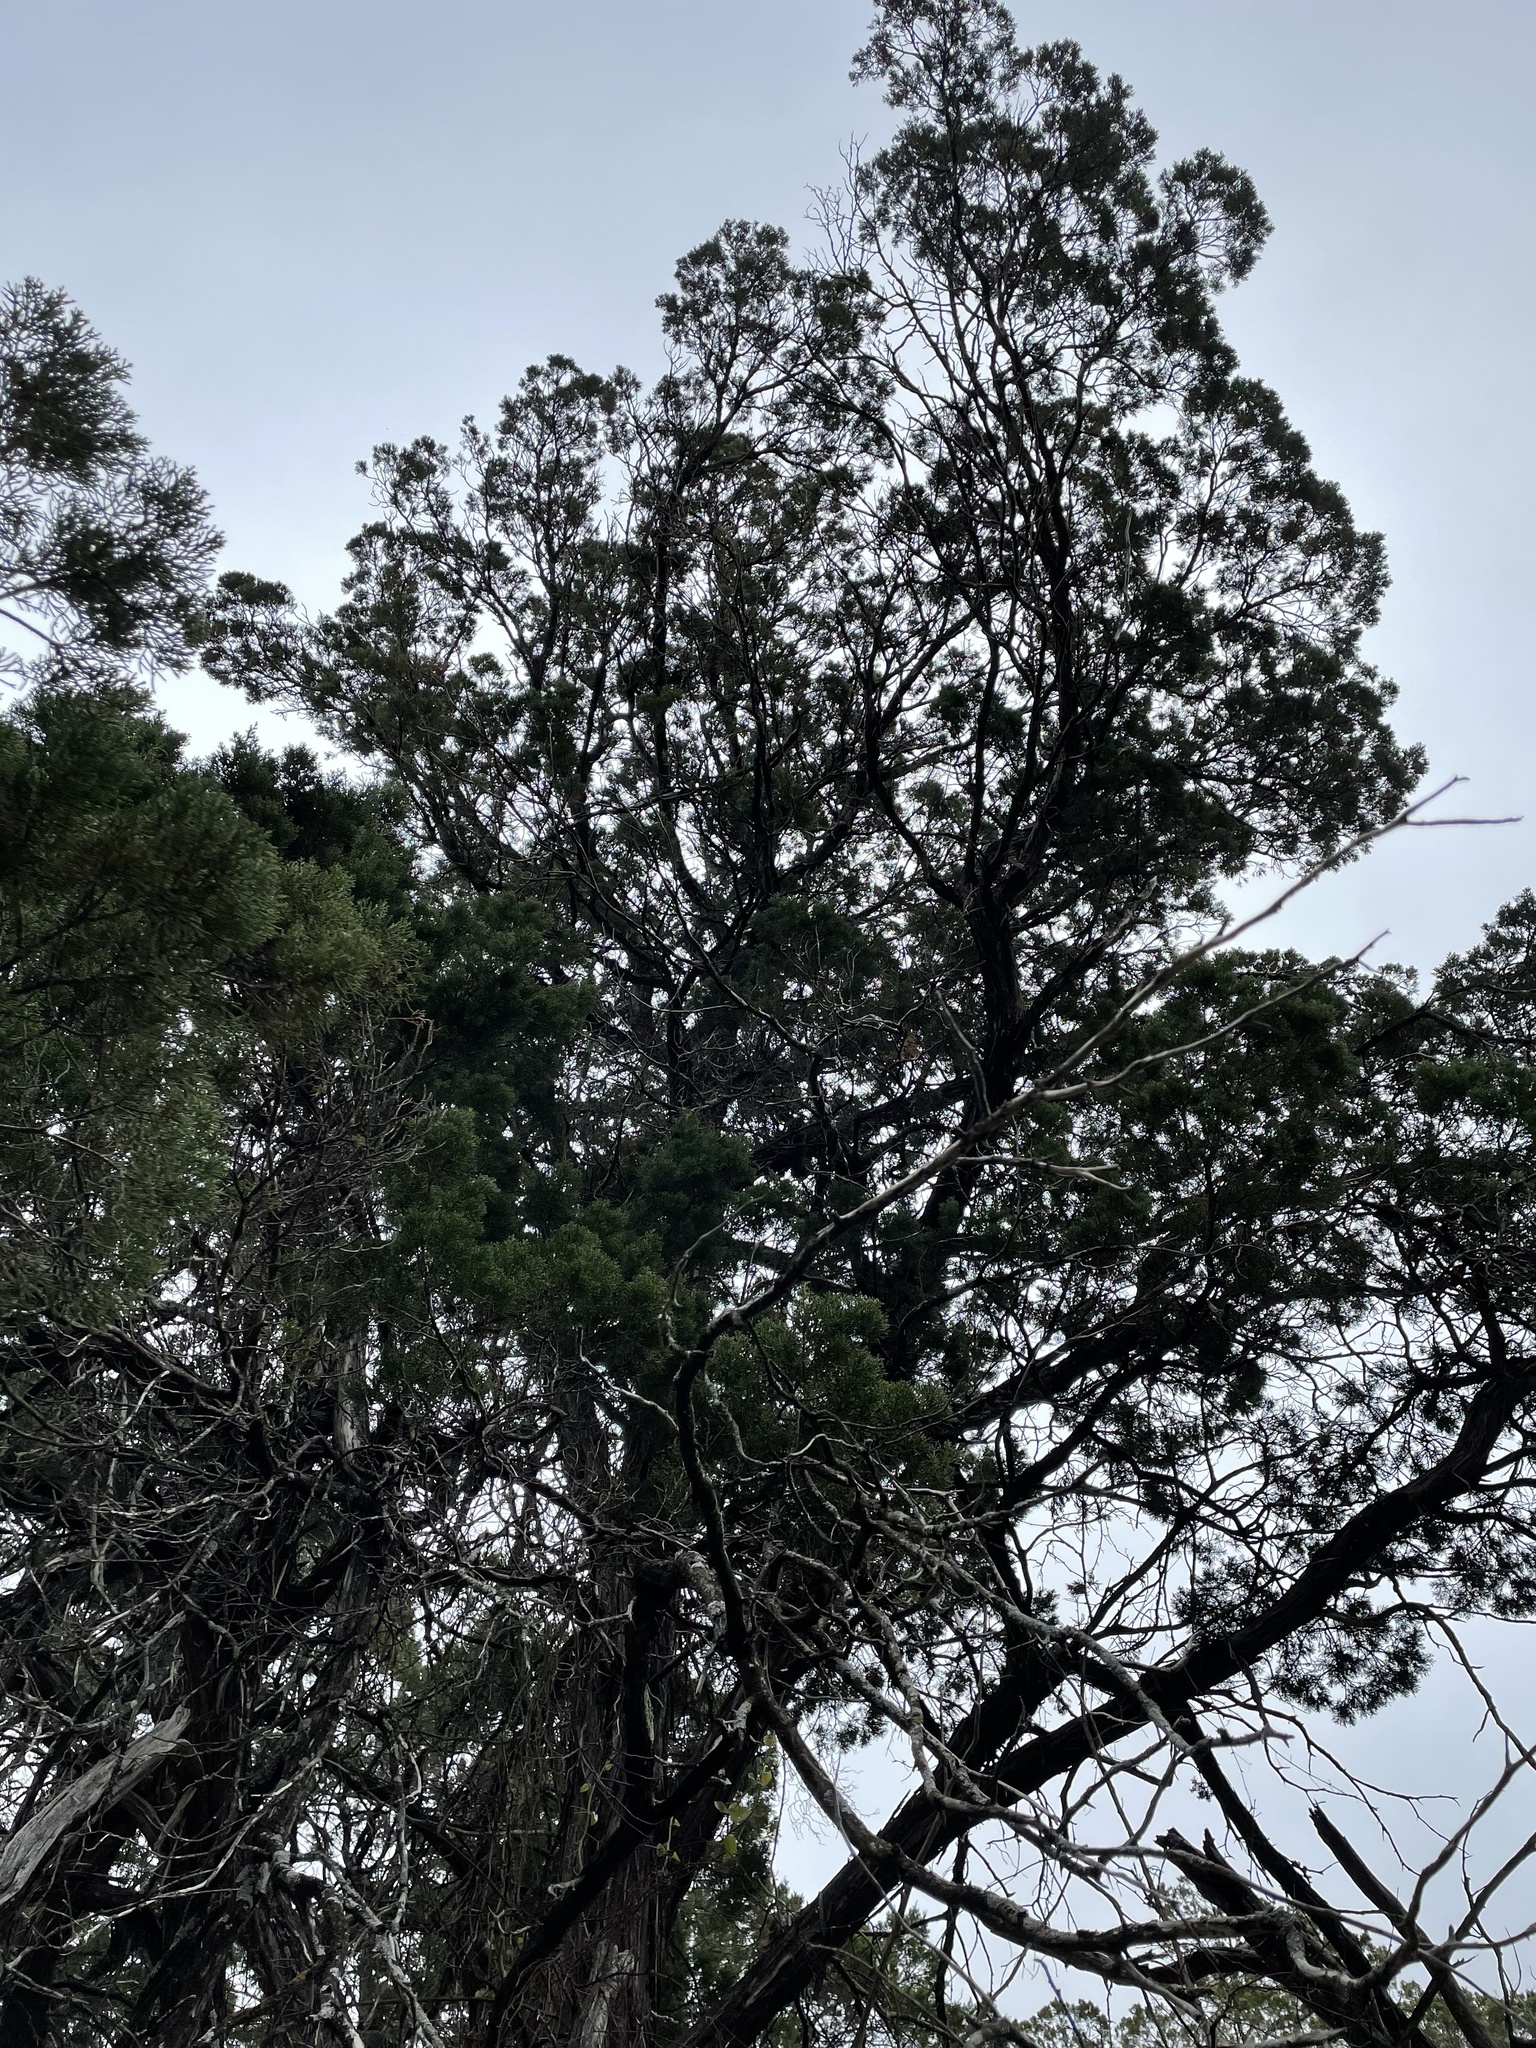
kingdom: Plantae
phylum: Tracheophyta
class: Pinopsida
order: Pinales
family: Cupressaceae
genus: Juniperus
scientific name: Juniperus ashei
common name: Mexican juniper
